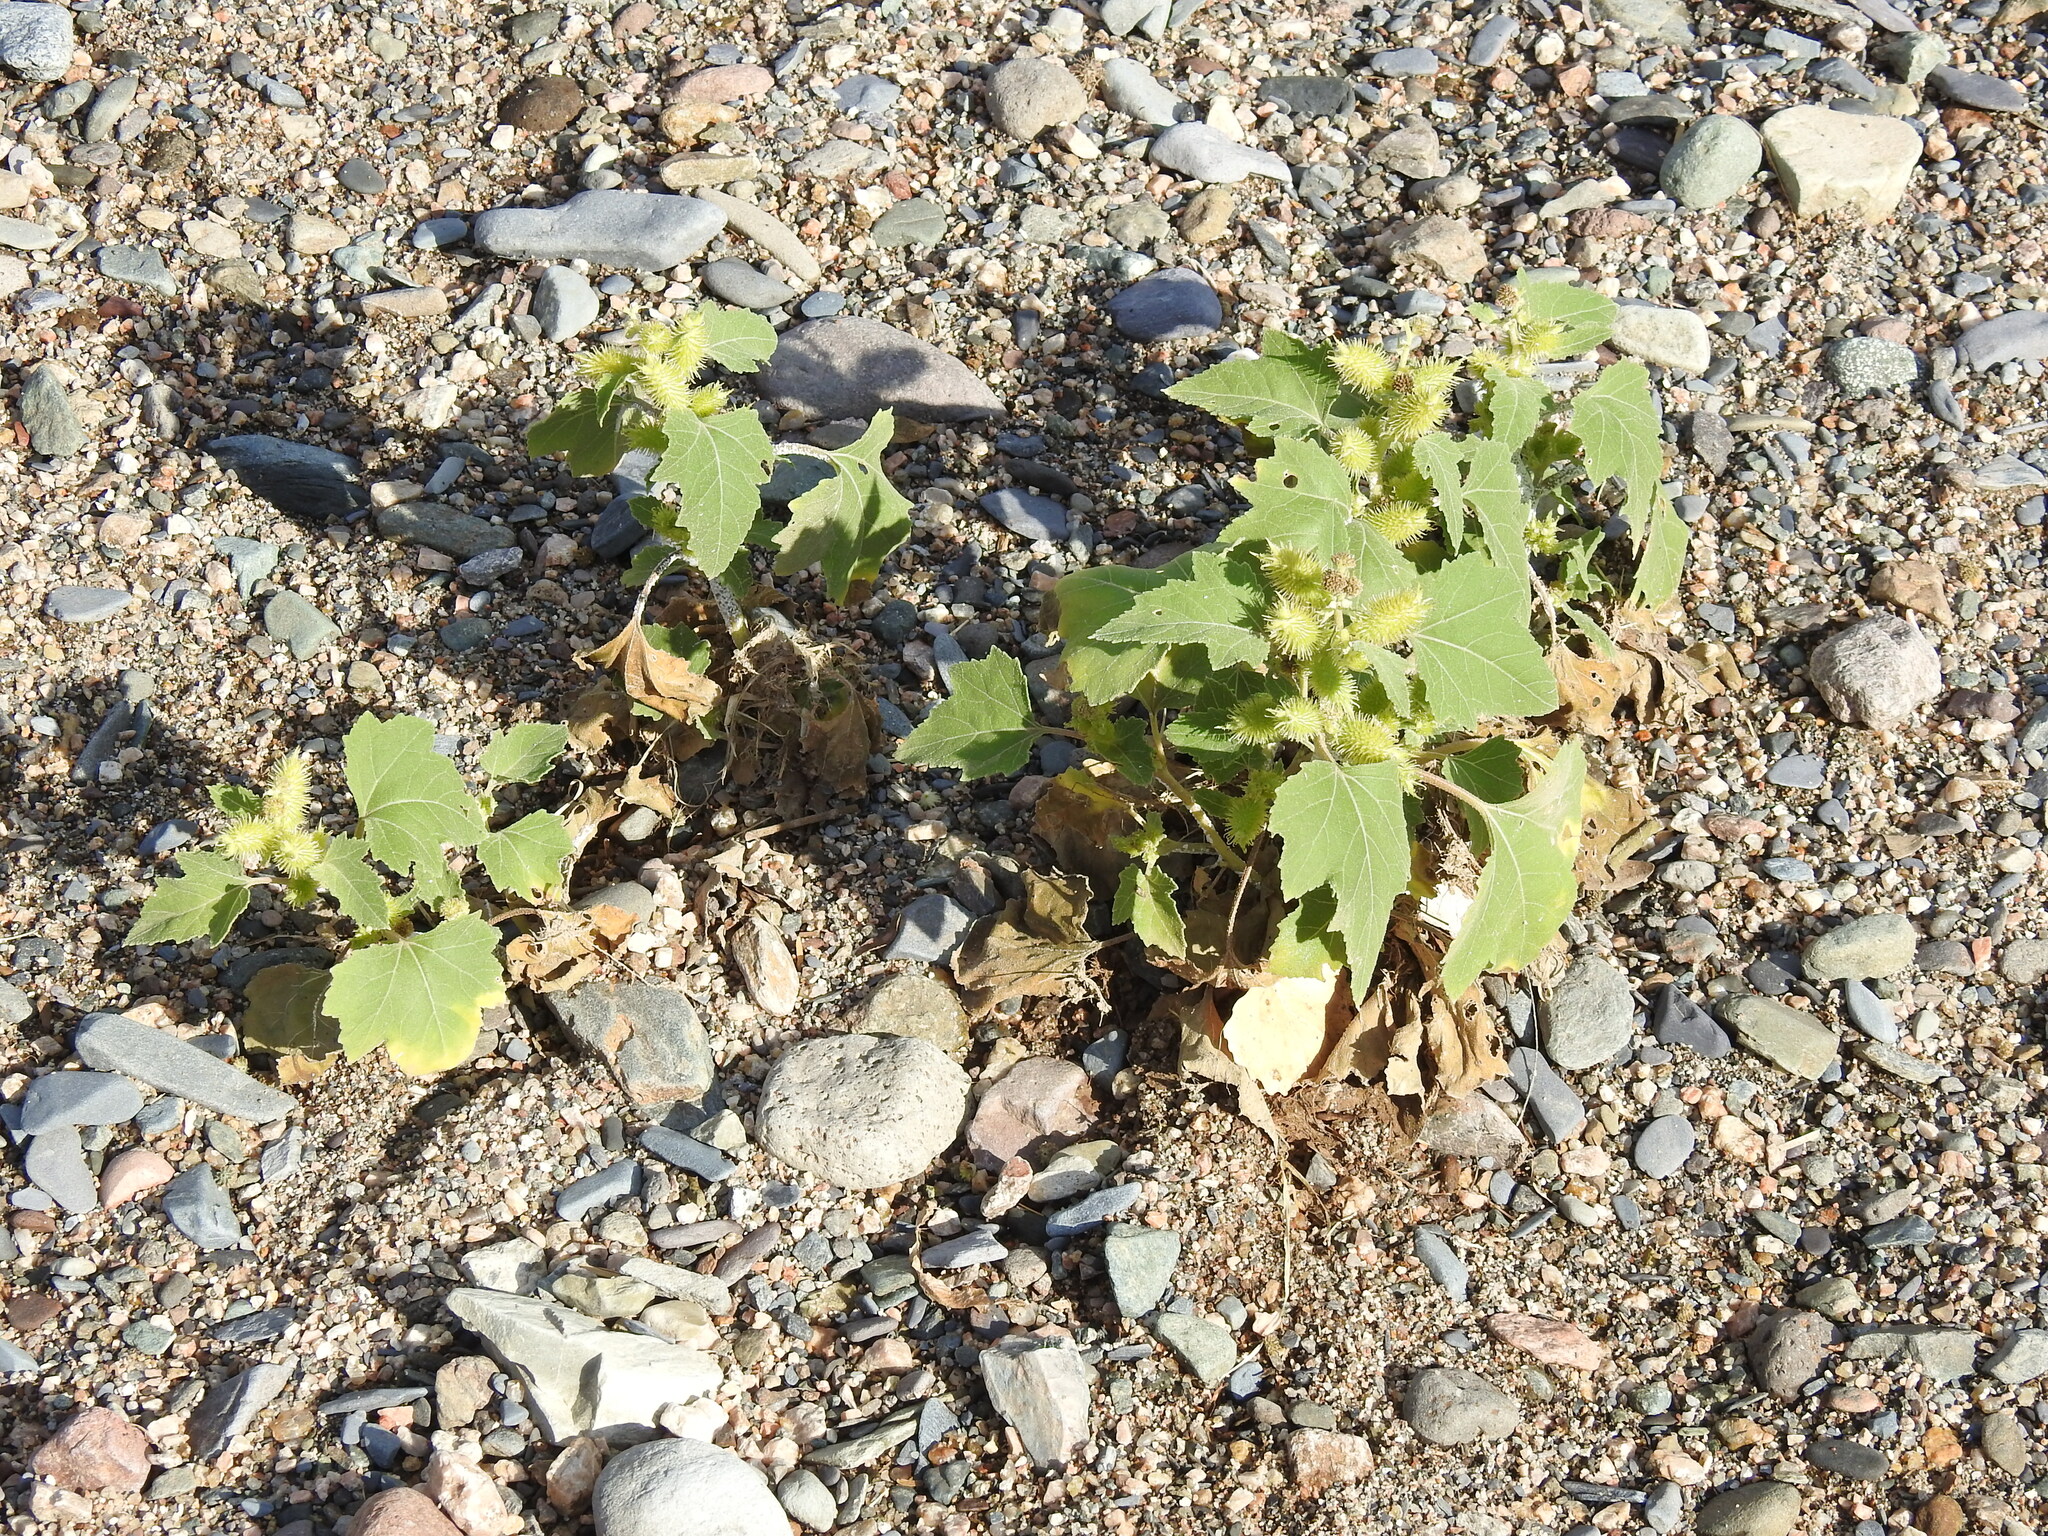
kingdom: Plantae
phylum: Tracheophyta
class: Magnoliopsida
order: Asterales
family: Asteraceae
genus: Xanthium
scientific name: Xanthium strumarium
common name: Rough cocklebur
